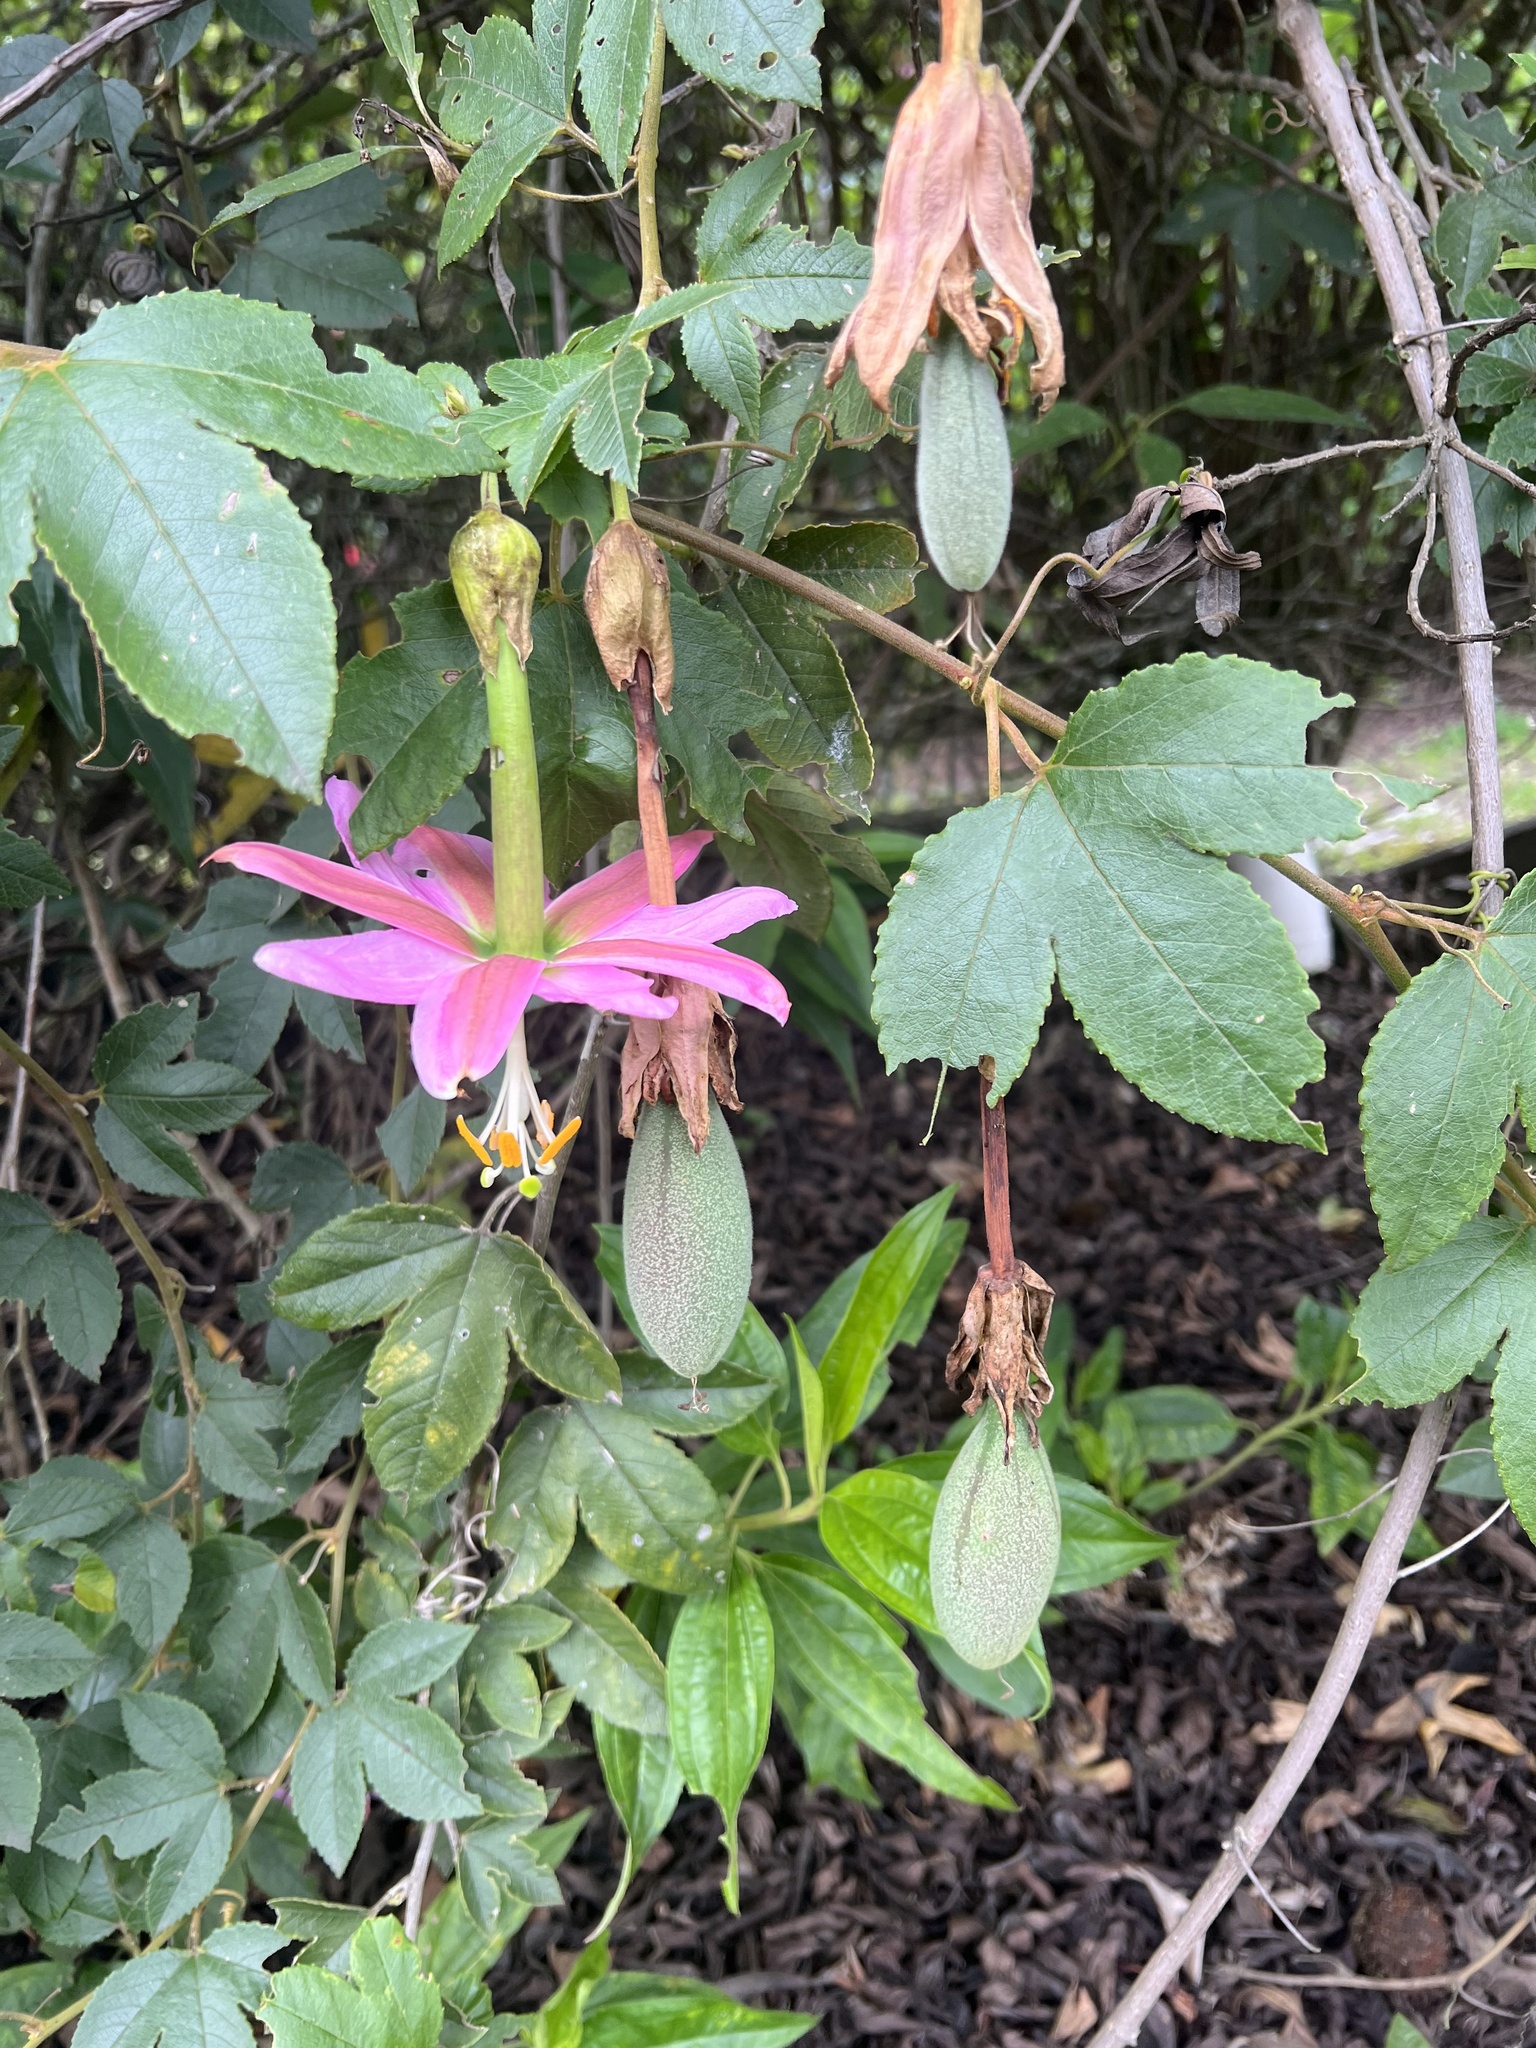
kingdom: Plantae
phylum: Tracheophyta
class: Magnoliopsida
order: Malpighiales
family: Passifloraceae
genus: Passiflora
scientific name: Passiflora tarminiana
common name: Banana poka
